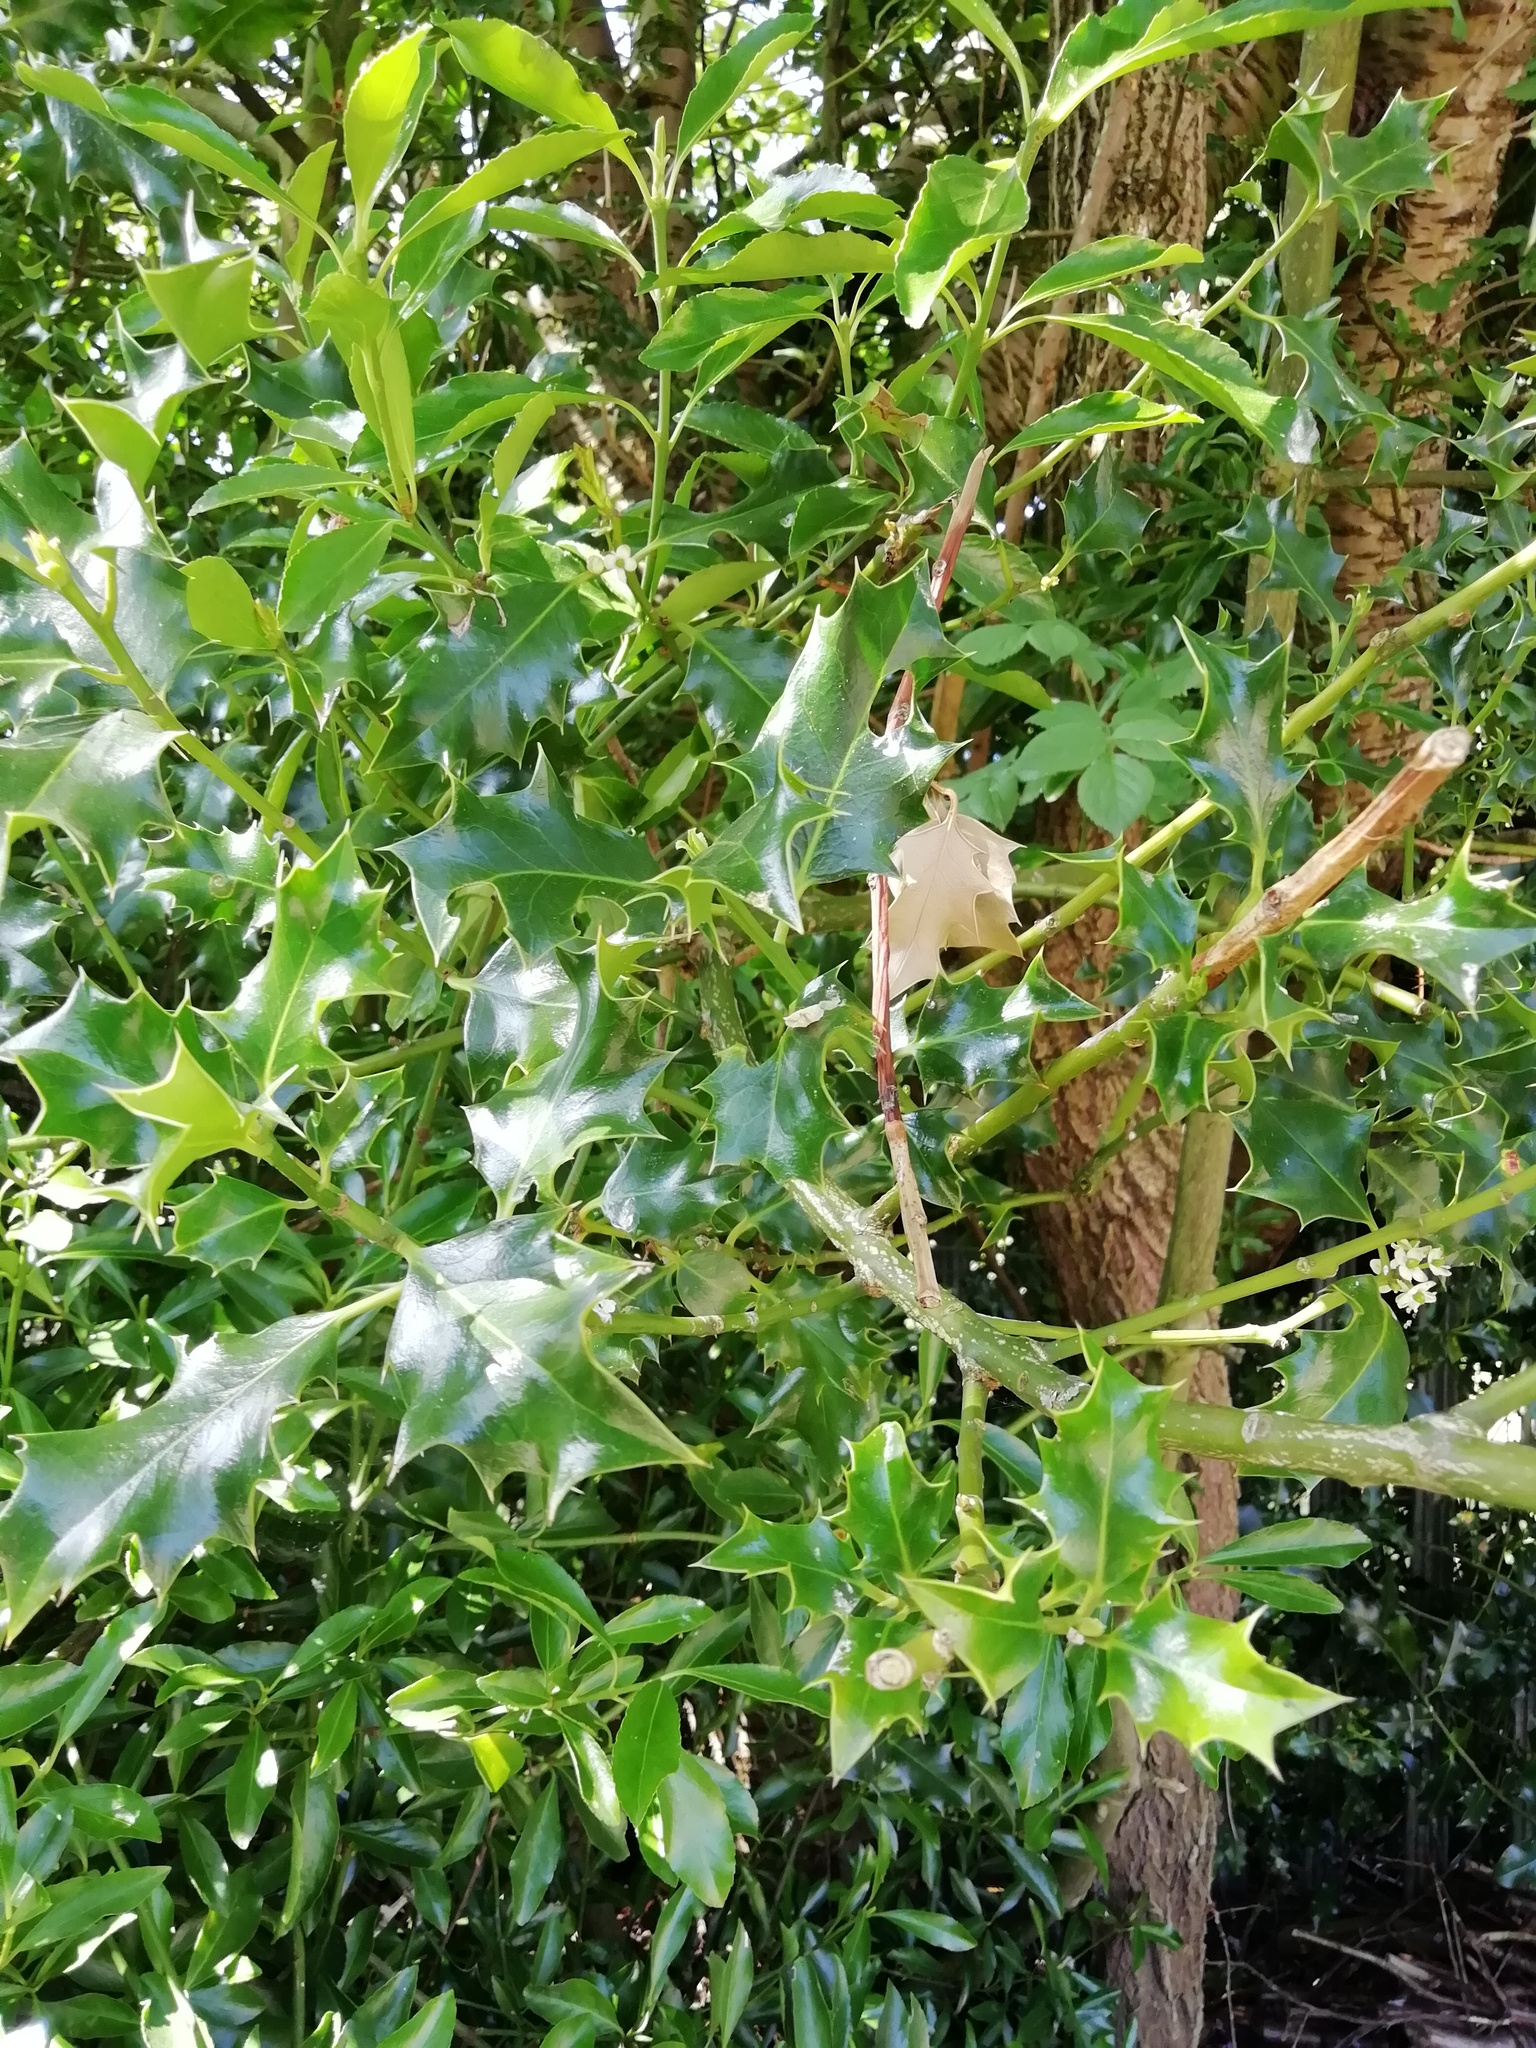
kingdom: Plantae
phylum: Tracheophyta
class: Magnoliopsida
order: Aquifoliales
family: Aquifoliaceae
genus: Ilex
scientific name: Ilex aquifolium
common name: English holly
